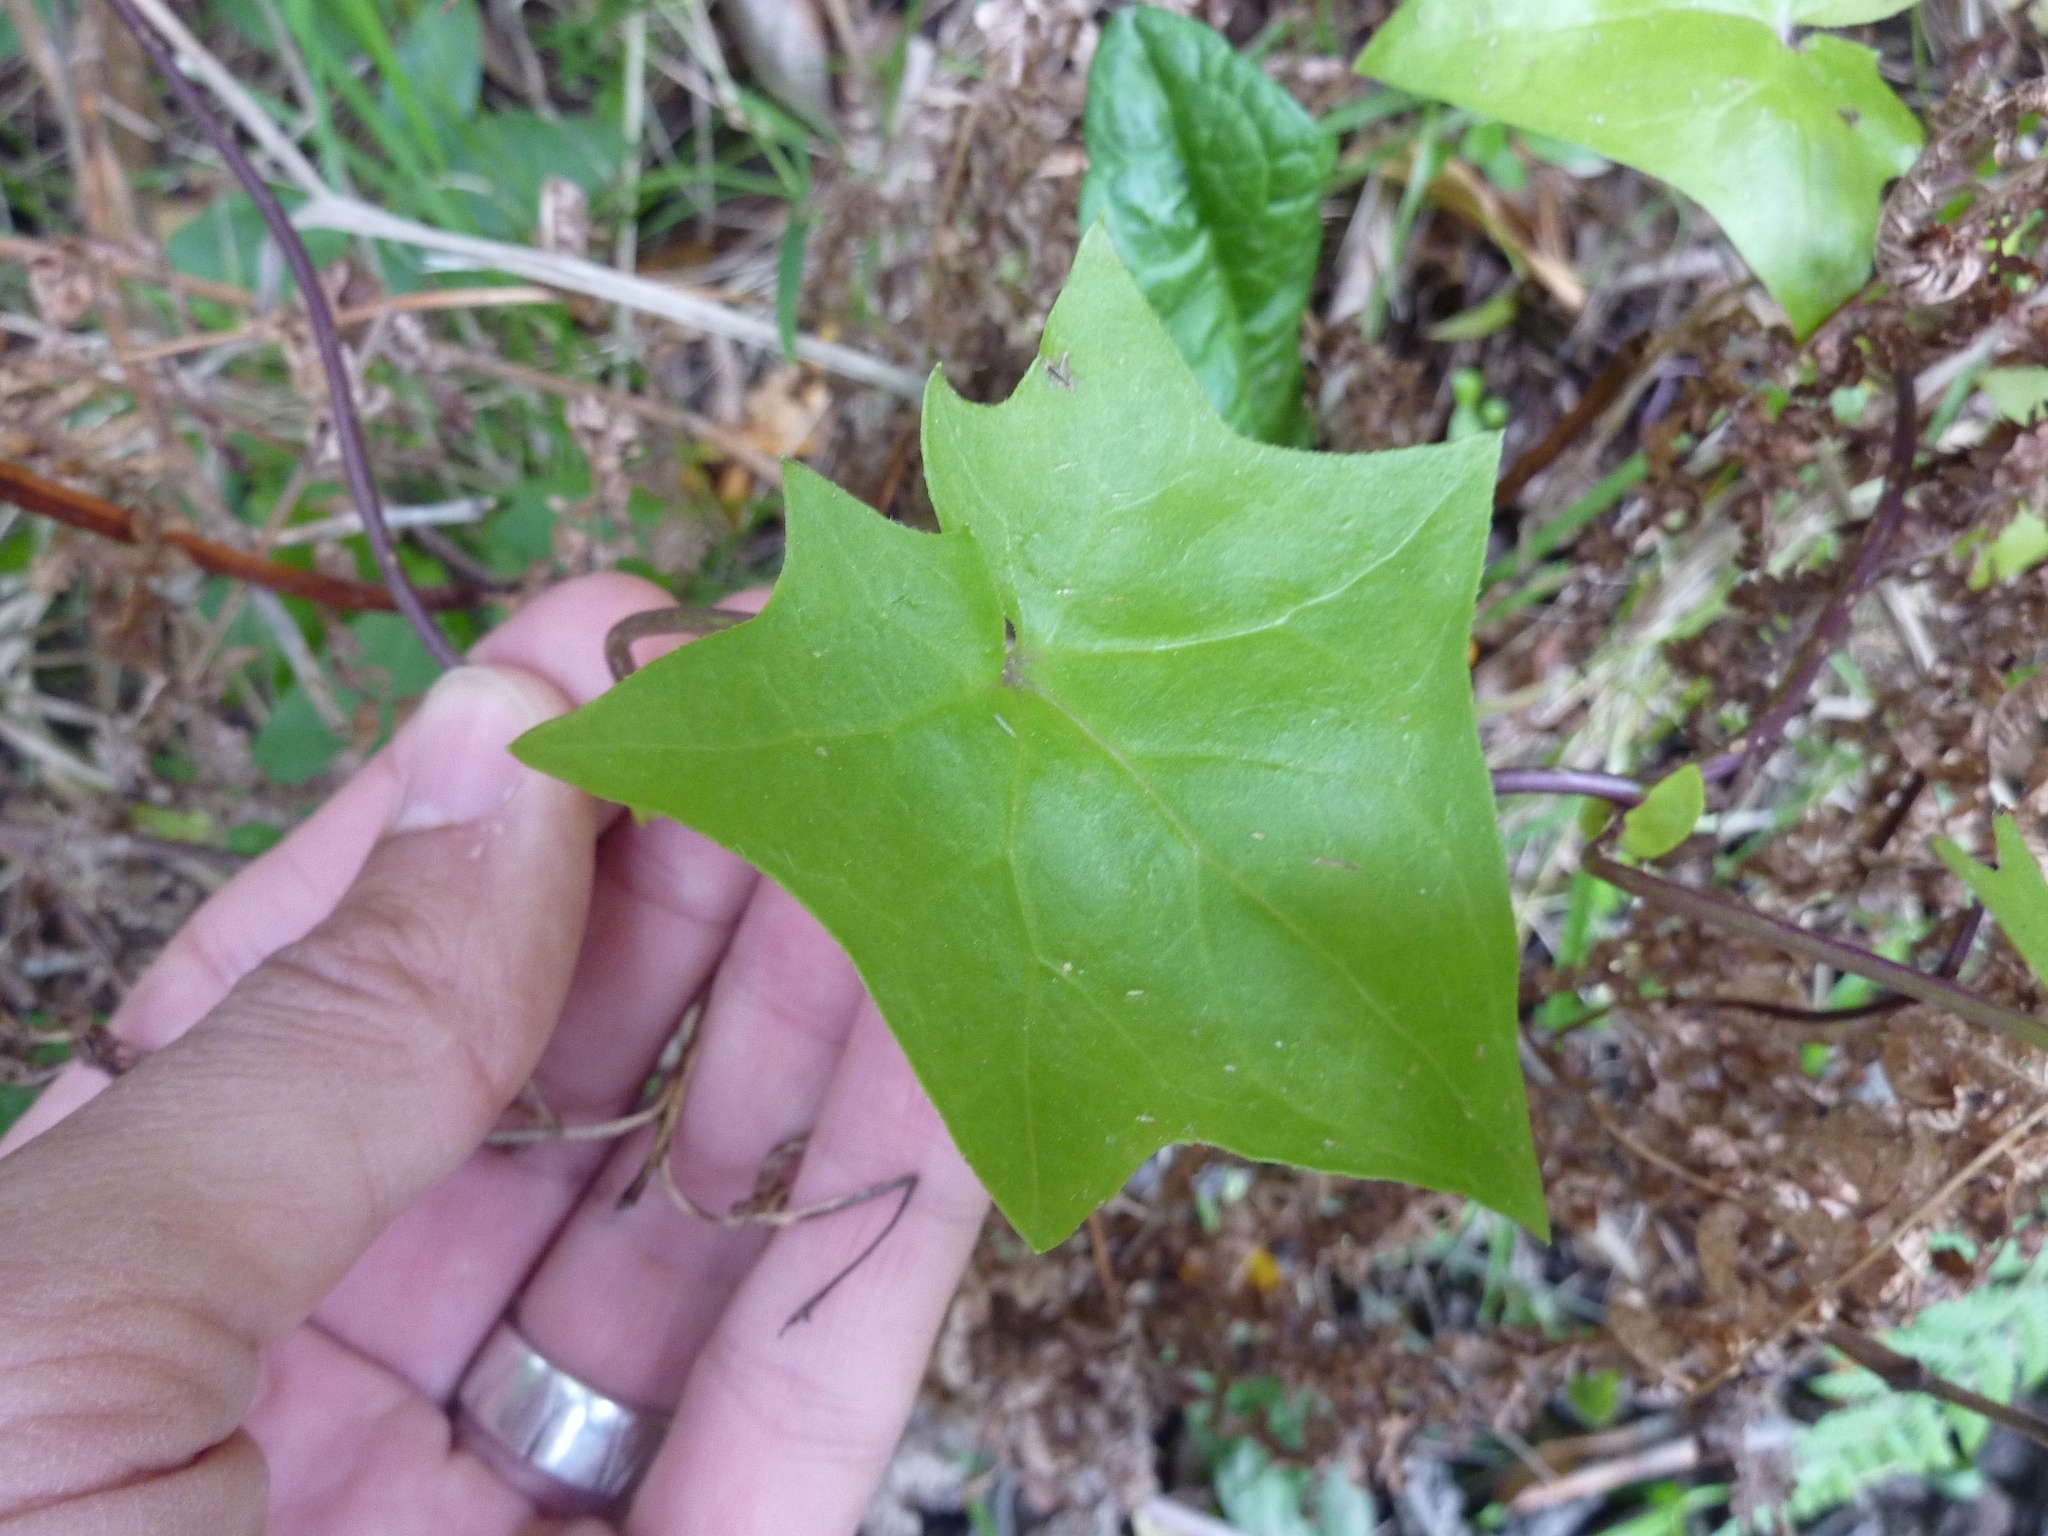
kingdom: Plantae
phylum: Tracheophyta
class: Magnoliopsida
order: Asterales
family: Asteraceae
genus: Delairea
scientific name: Delairea odorata
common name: Cape-ivy
